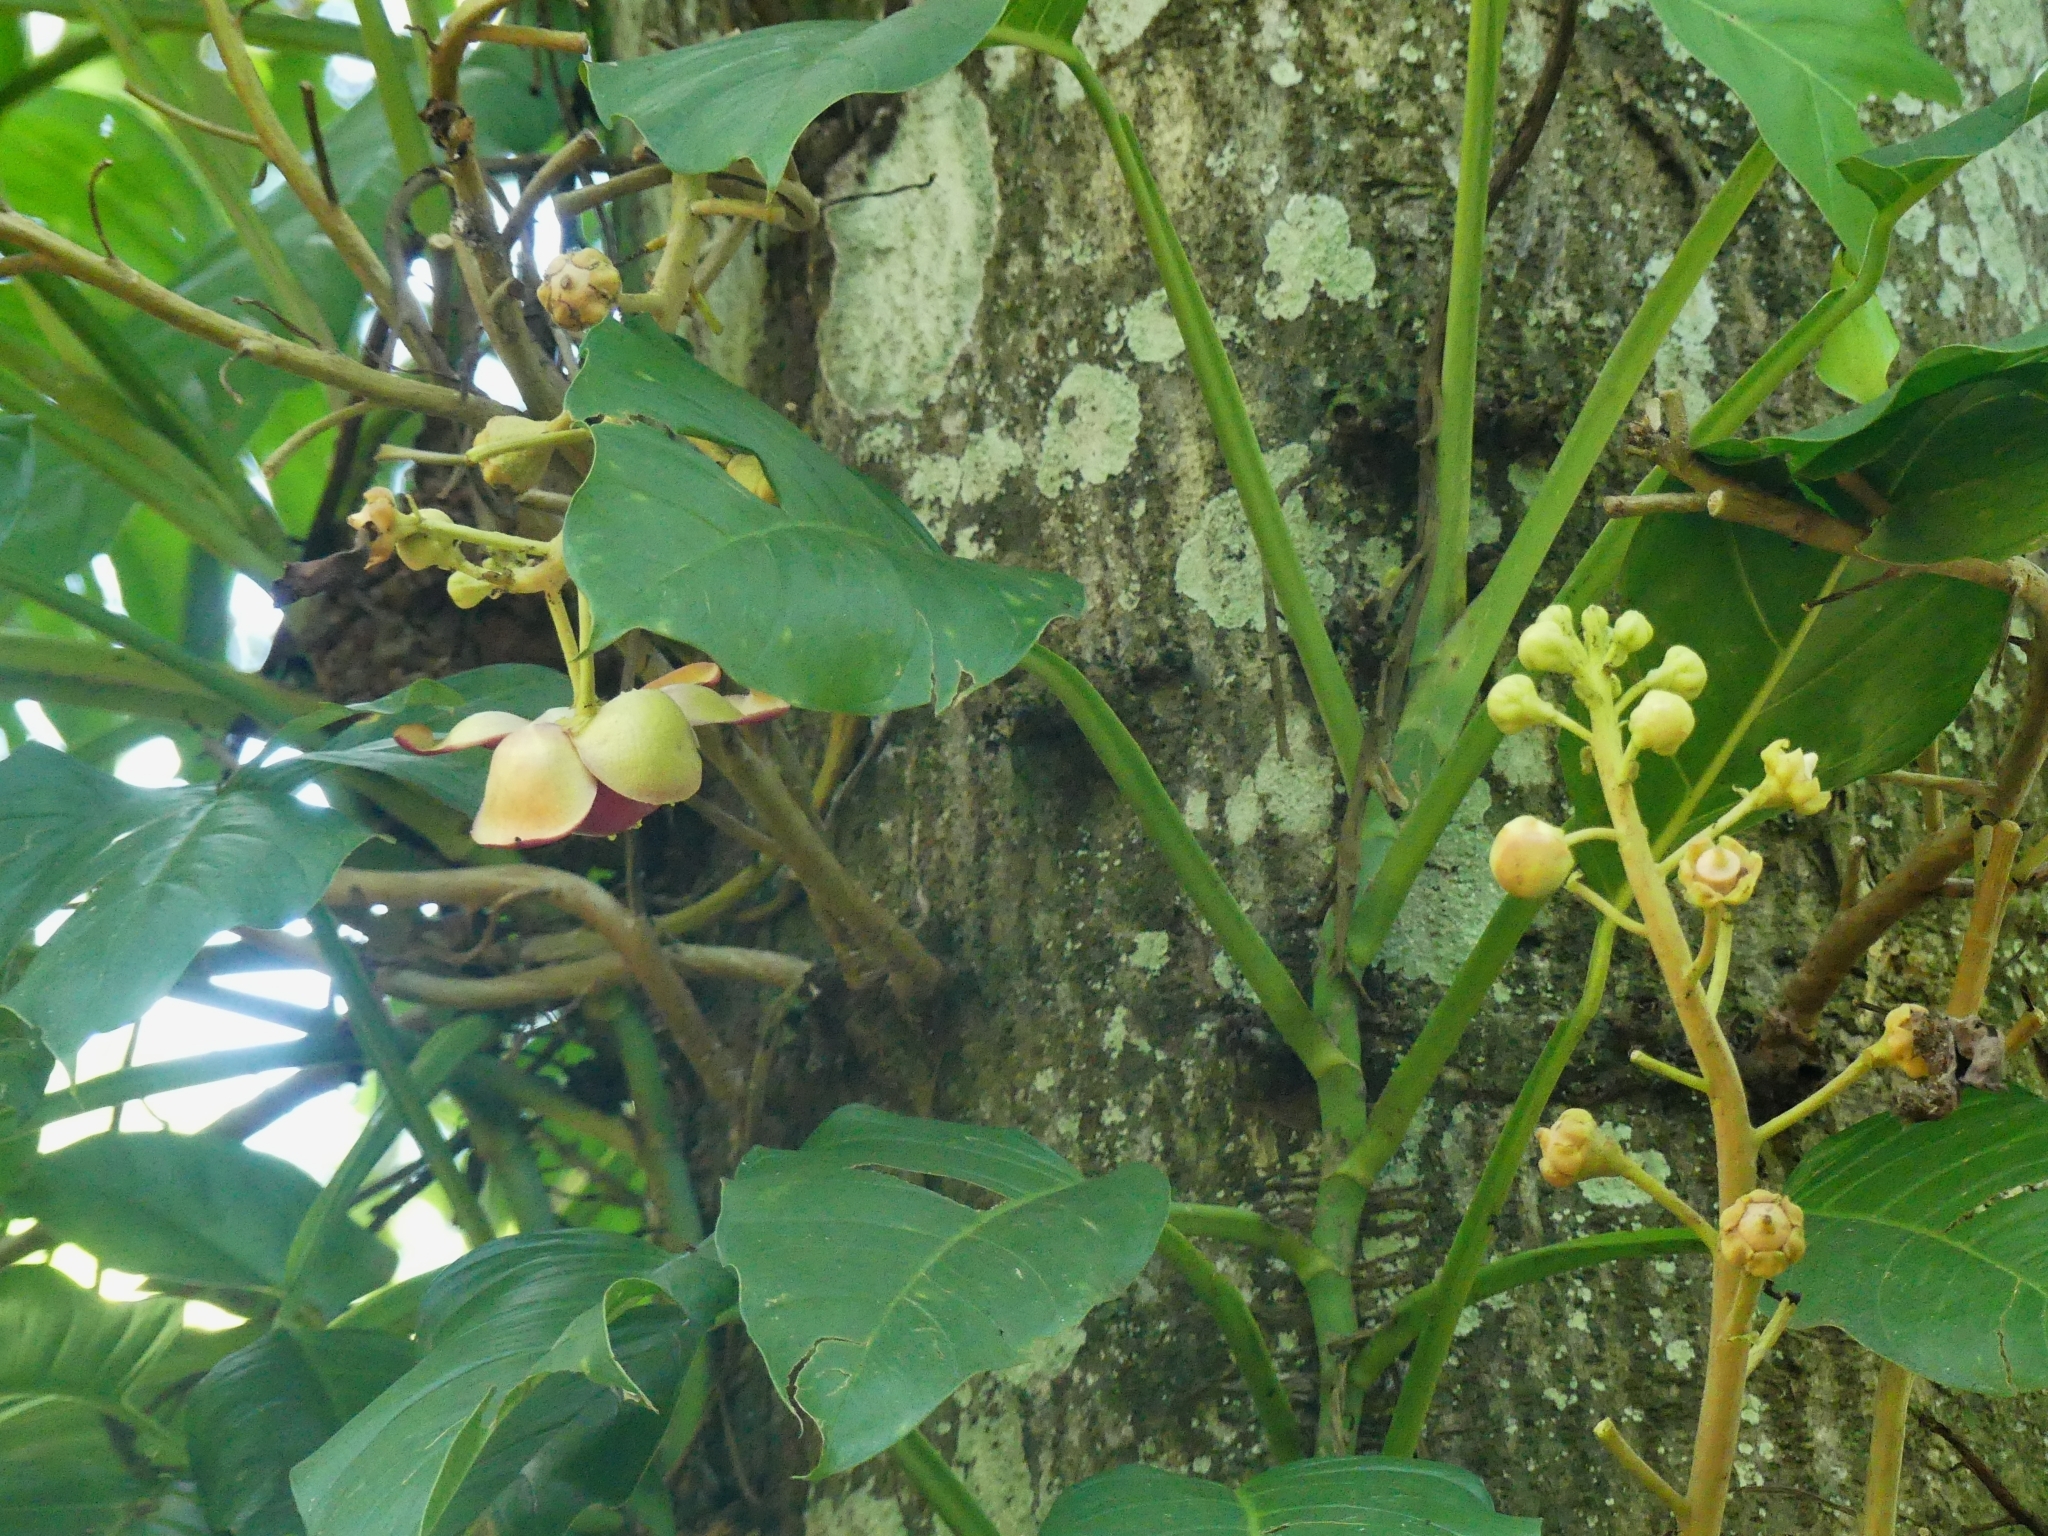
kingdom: Plantae
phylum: Tracheophyta
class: Magnoliopsida
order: Ericales
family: Lecythidaceae
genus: Couroupita
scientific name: Couroupita guianensis
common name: Cannonball tree
